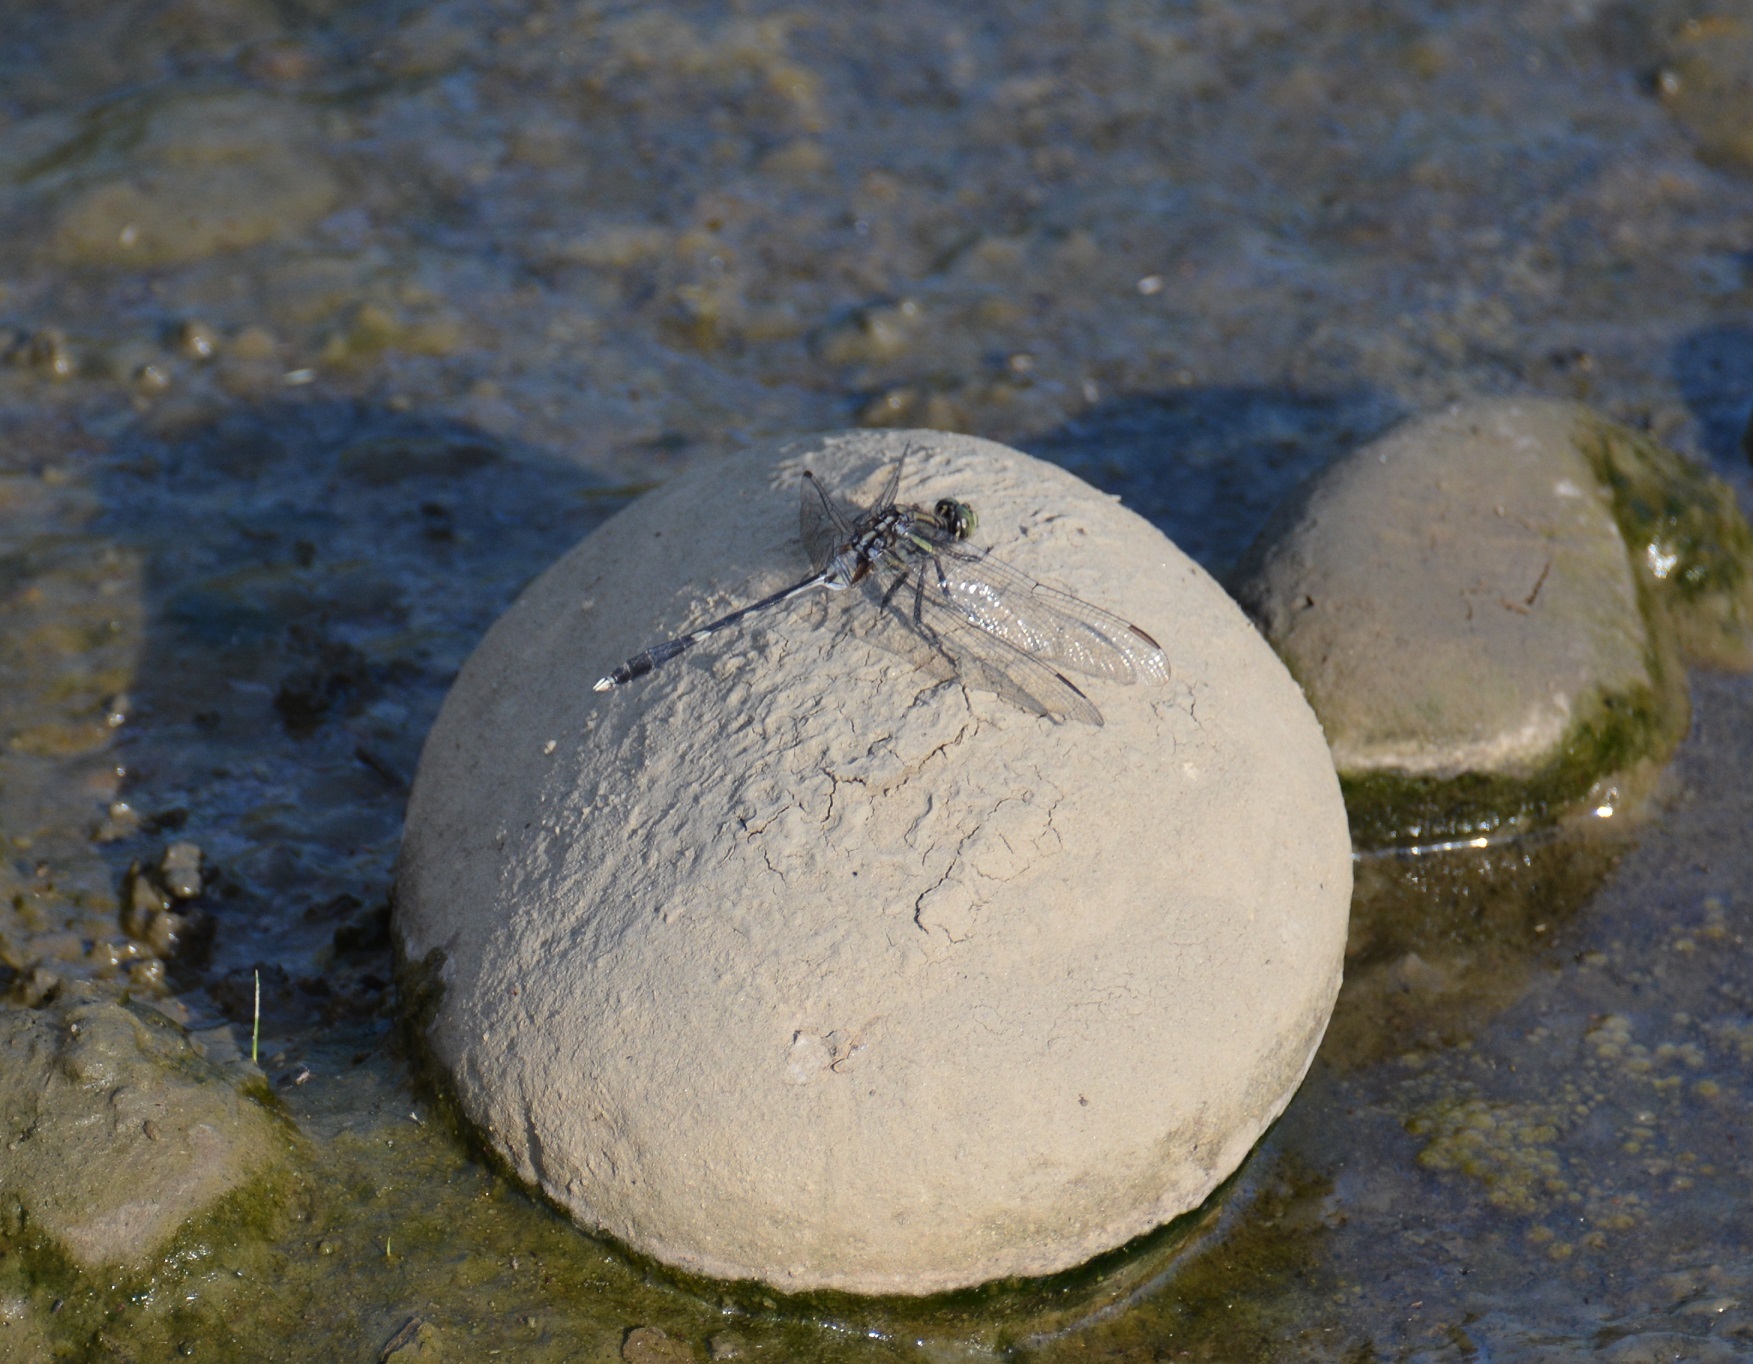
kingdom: Animalia
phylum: Arthropoda
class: Insecta
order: Odonata
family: Libellulidae
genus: Orthetrum
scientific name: Orthetrum sabina
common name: Slender skimmer
